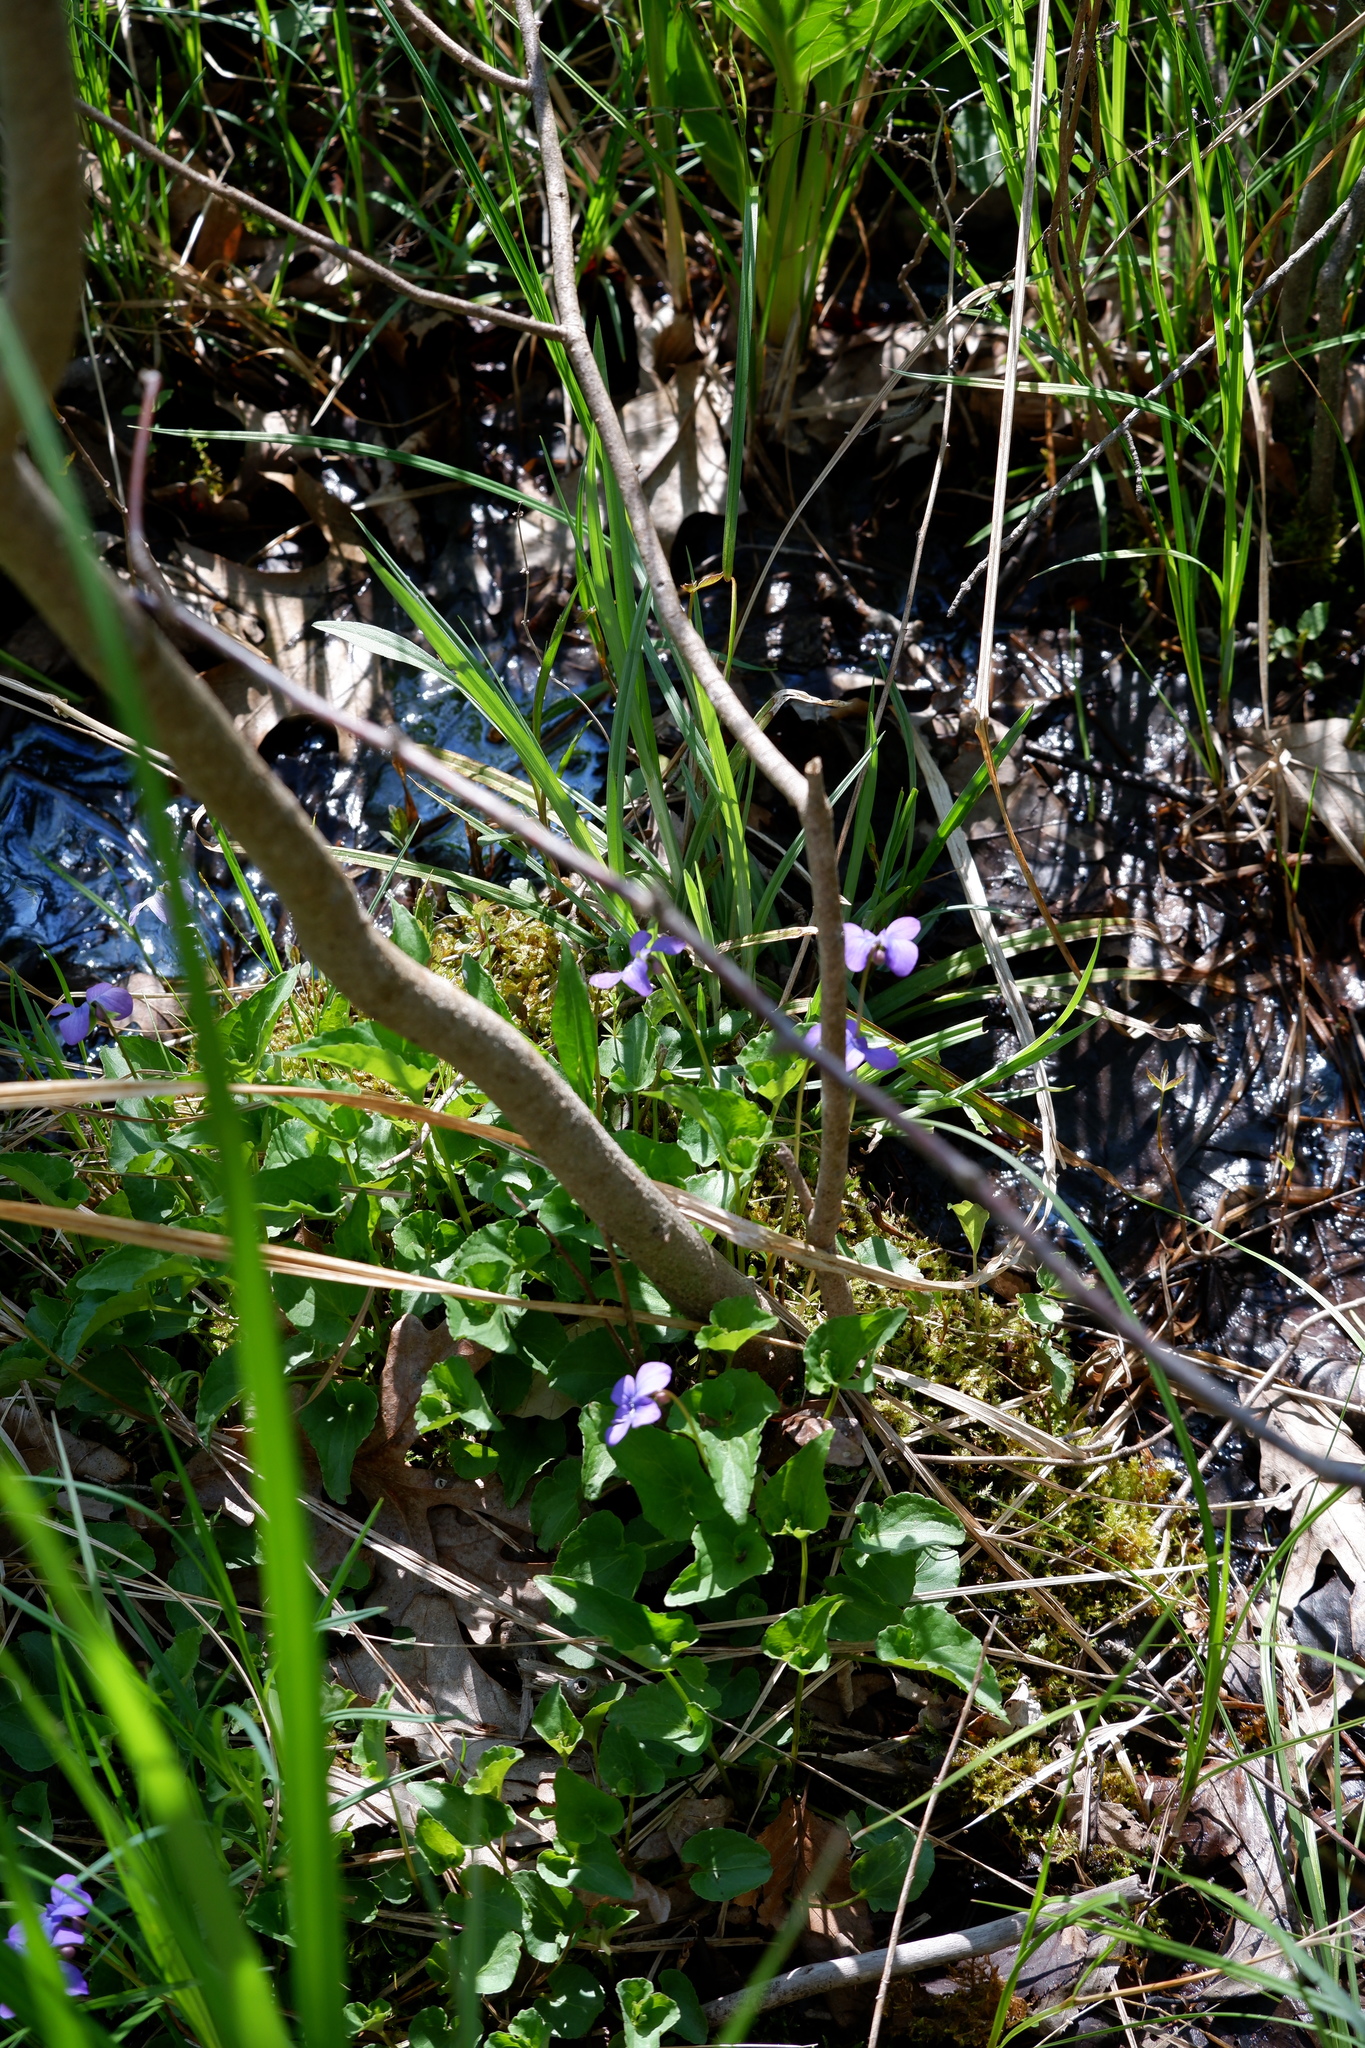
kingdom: Plantae
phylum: Tracheophyta
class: Magnoliopsida
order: Malpighiales
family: Violaceae
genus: Viola
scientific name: Viola cucullata
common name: Marsh blue violet
